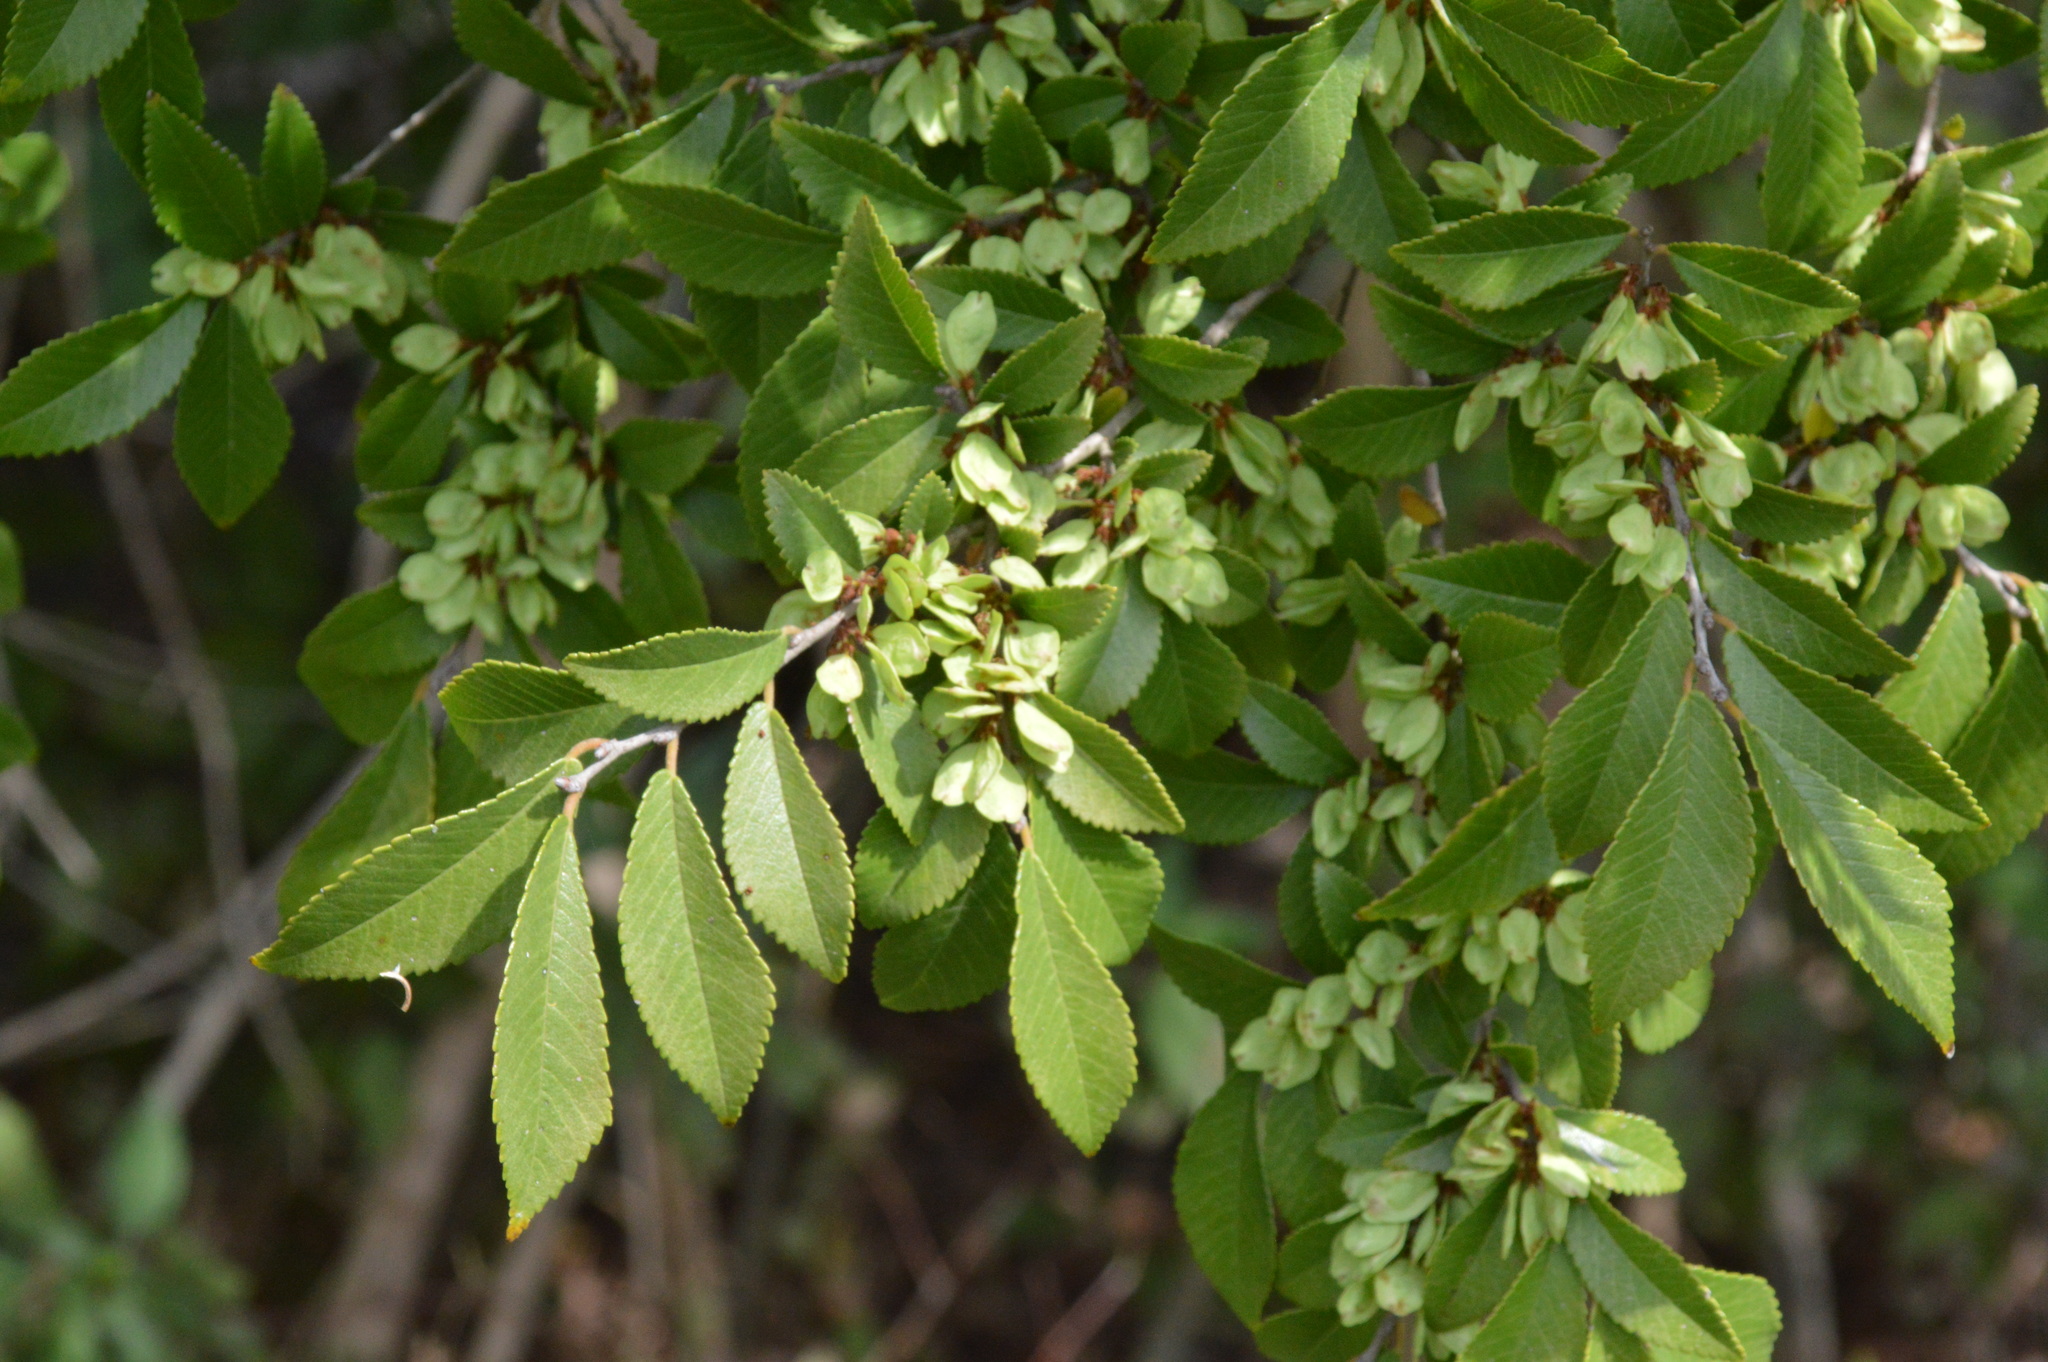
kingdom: Plantae
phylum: Tracheophyta
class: Magnoliopsida
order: Rosales
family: Ulmaceae
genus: Ulmus
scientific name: Ulmus parvifolia
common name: Chinese elm
